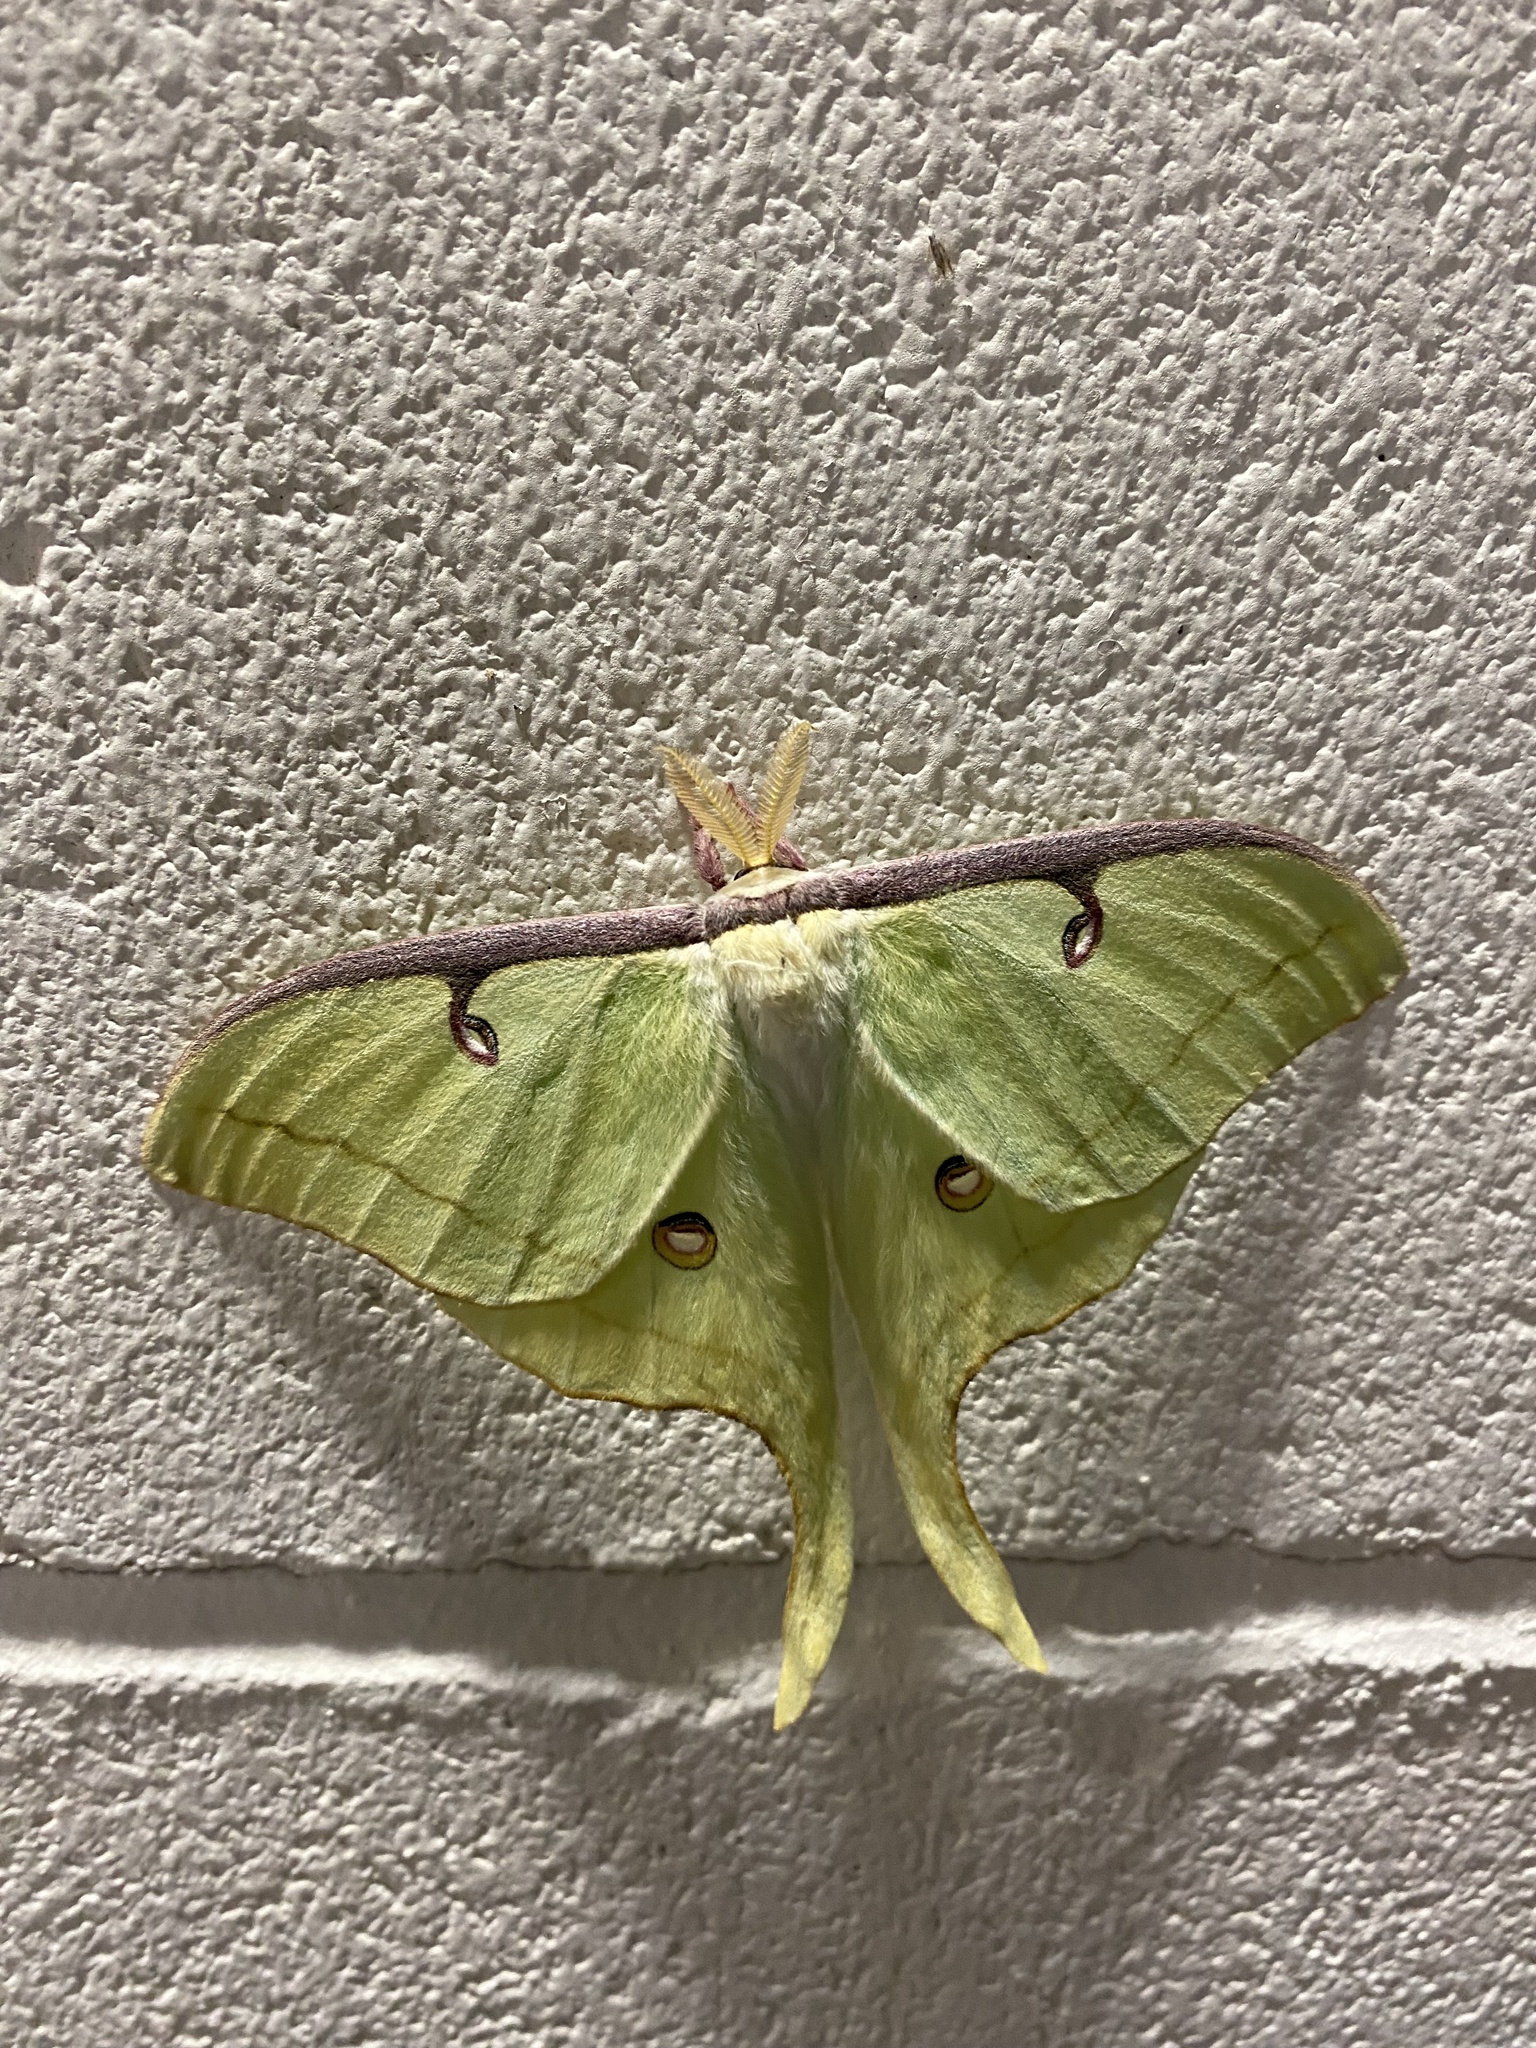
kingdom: Animalia
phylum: Arthropoda
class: Insecta
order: Lepidoptera
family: Saturniidae
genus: Actias
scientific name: Actias luna
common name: Luna moth
